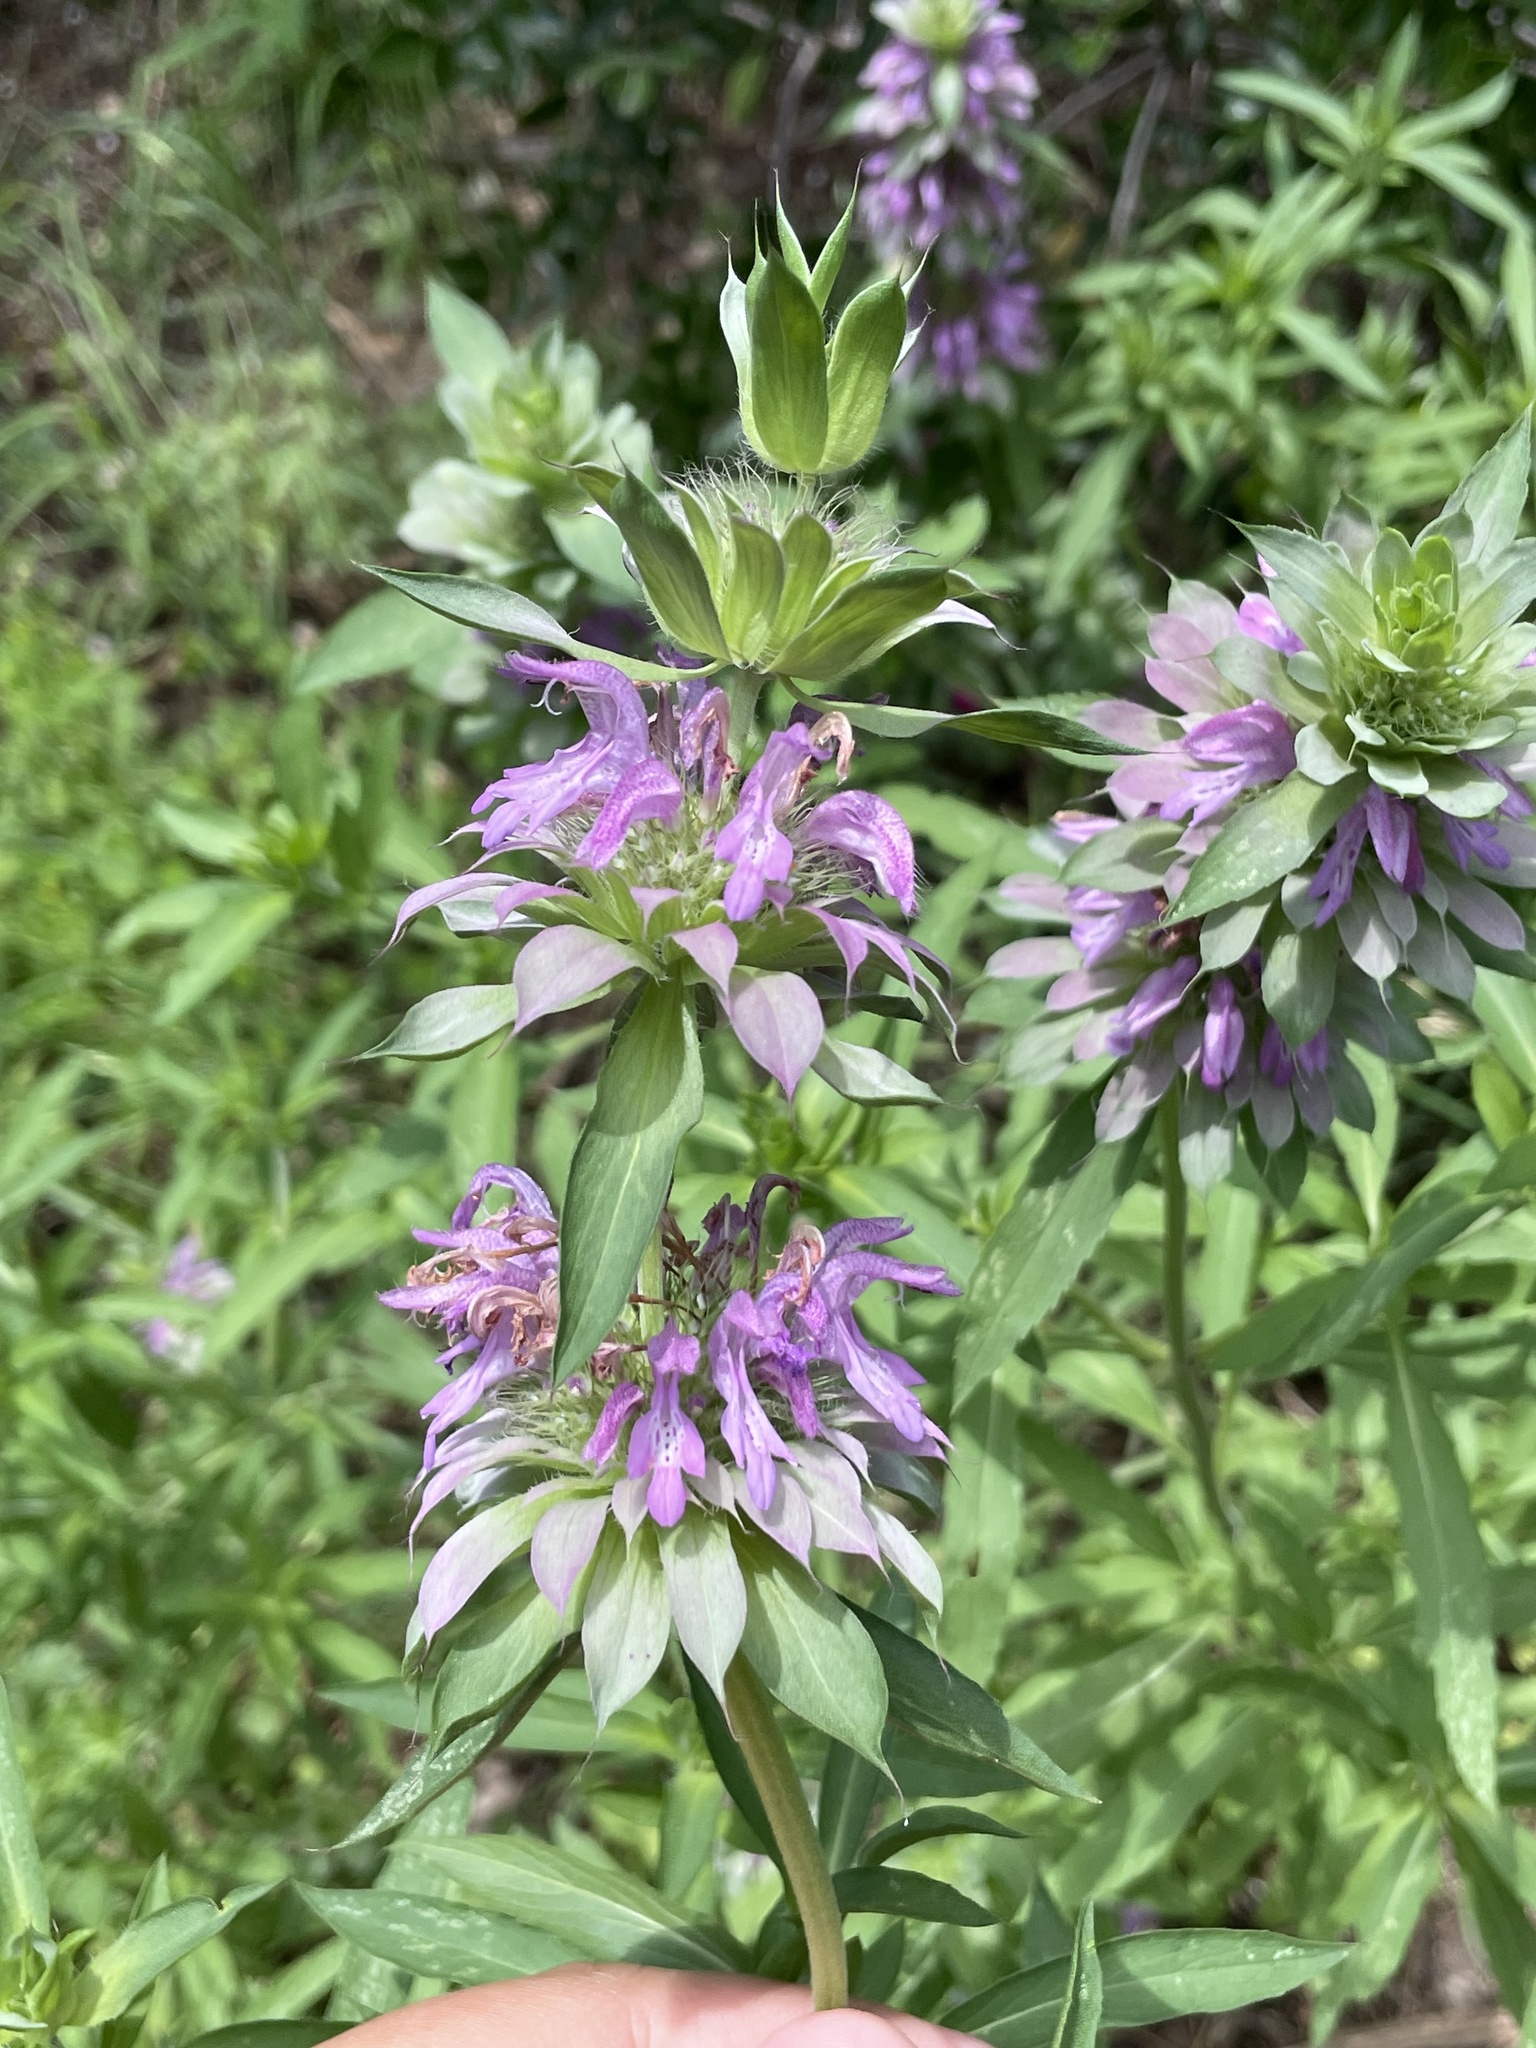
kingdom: Plantae
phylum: Tracheophyta
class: Magnoliopsida
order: Lamiales
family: Lamiaceae
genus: Monarda
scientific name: Monarda citriodora
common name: Lemon beebalm
